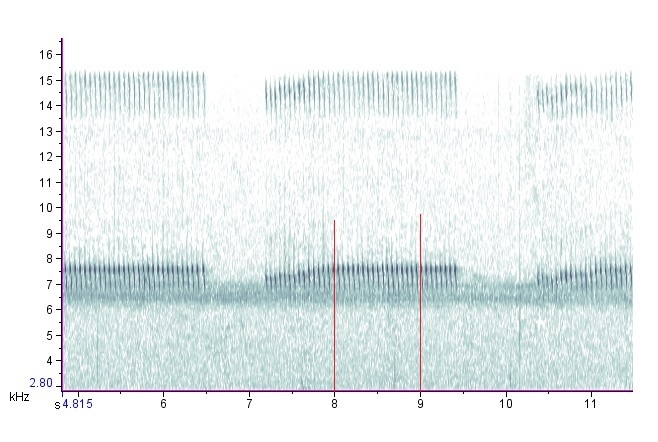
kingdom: Animalia
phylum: Arthropoda
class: Insecta
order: Orthoptera
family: Trigonidiidae
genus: Allonemobius
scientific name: Allonemobius allardi
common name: Allard’s ground cricket
